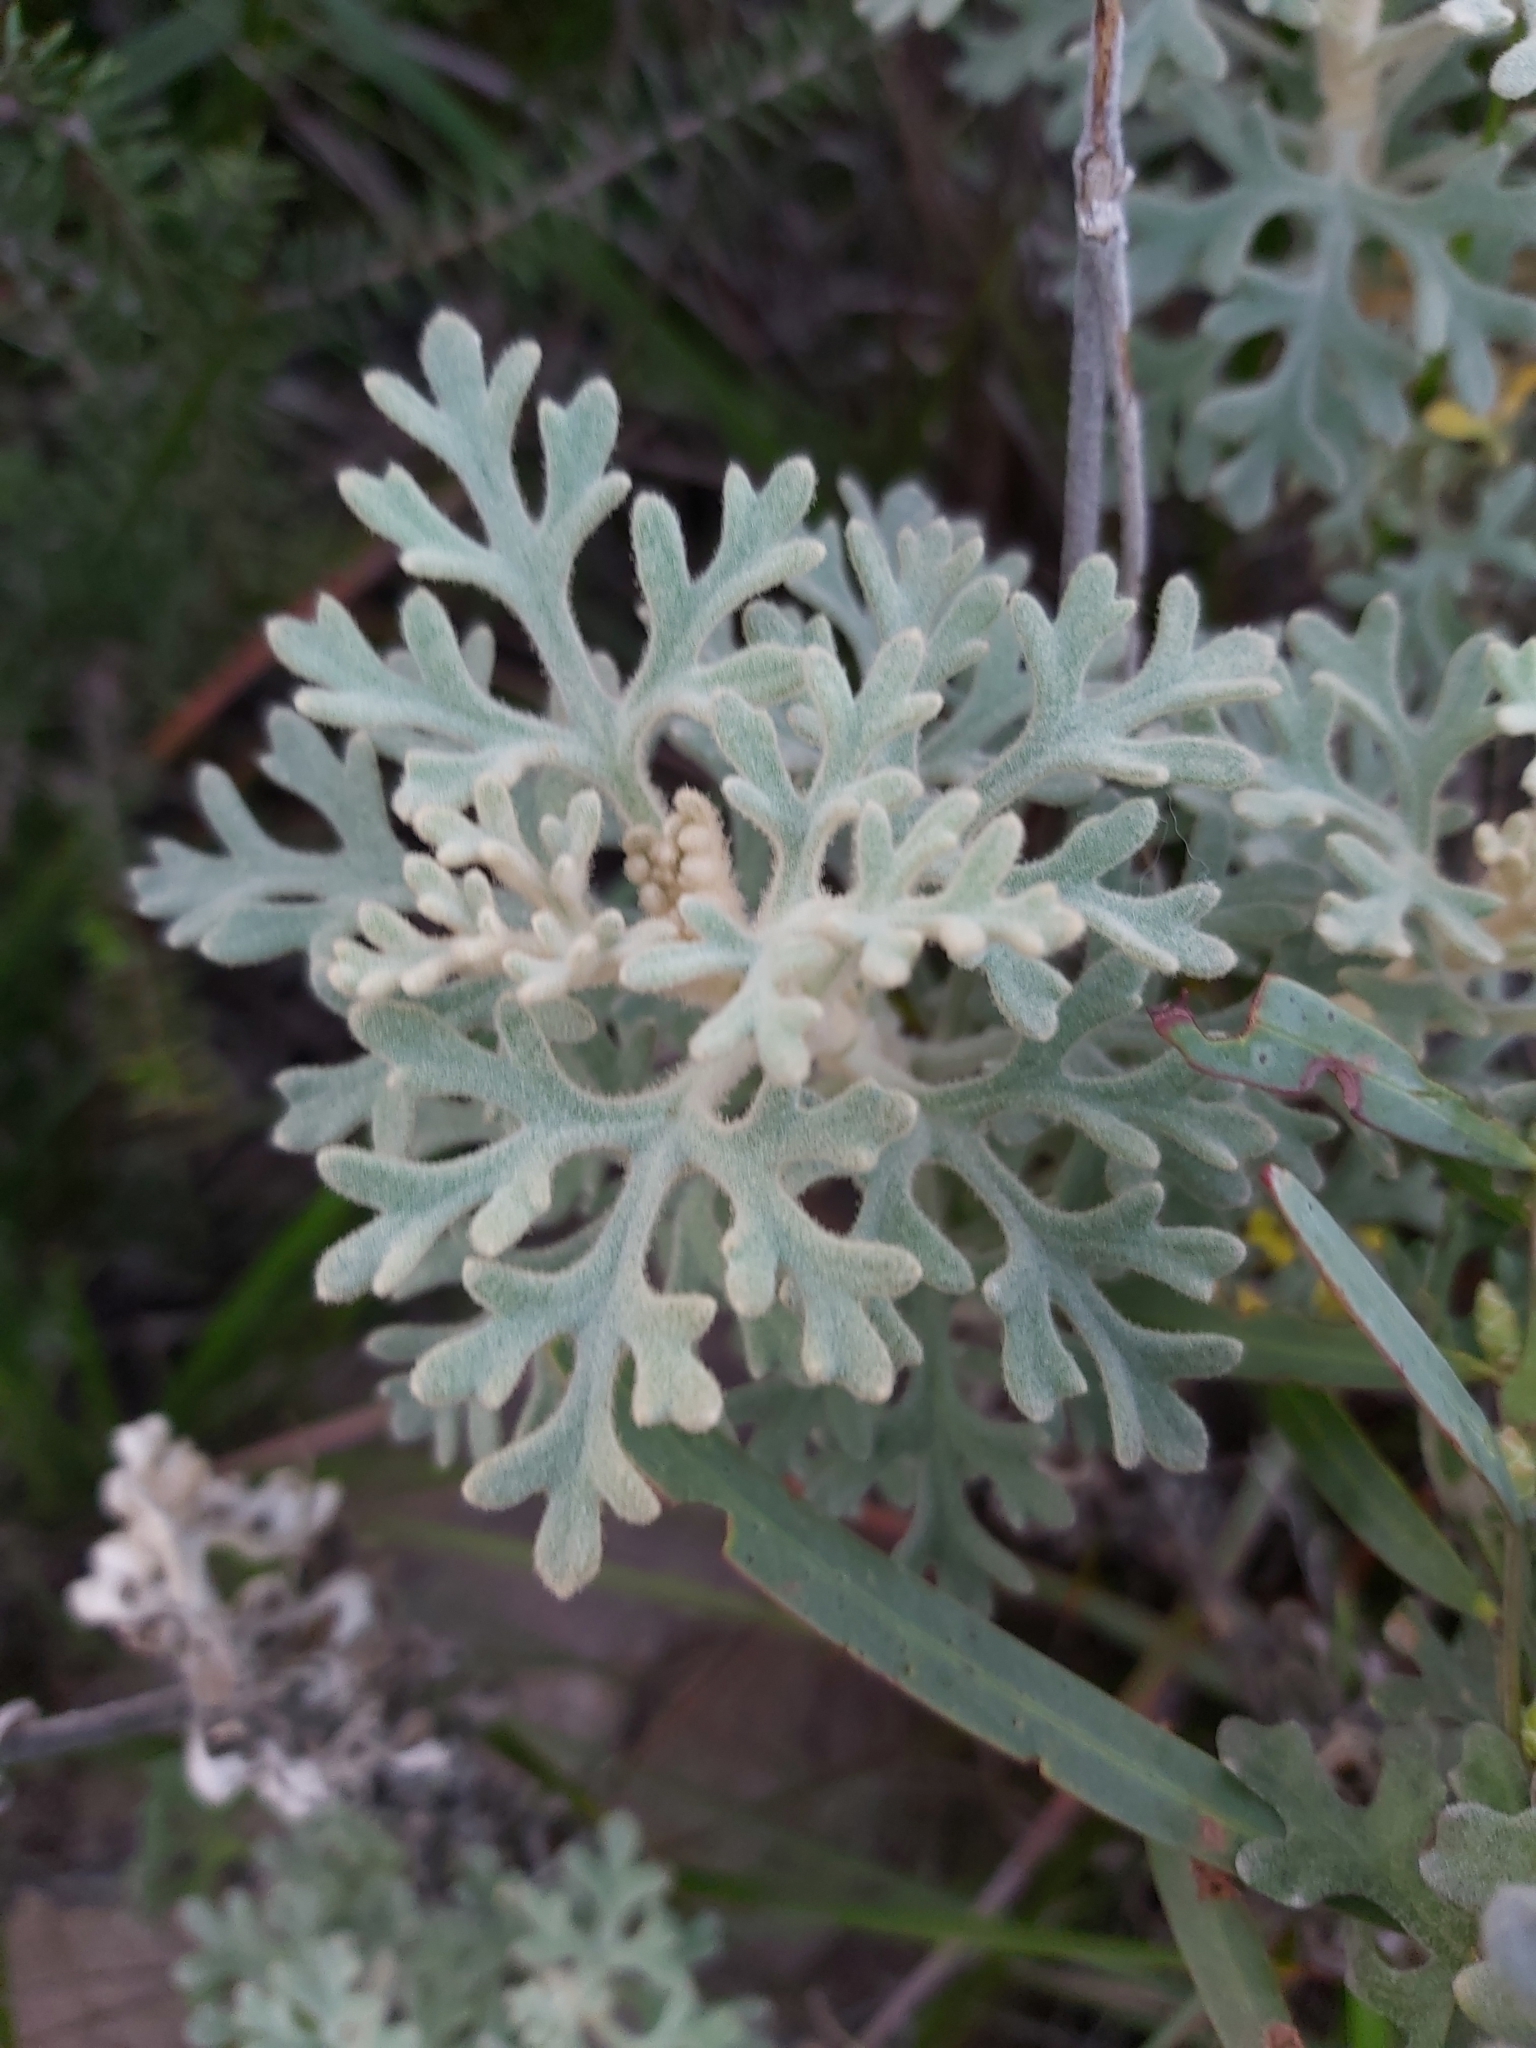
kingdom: Plantae
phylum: Tracheophyta
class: Magnoliopsida
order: Apiales
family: Apiaceae
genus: Actinotus
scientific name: Actinotus helianthi
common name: Flannel-flower
